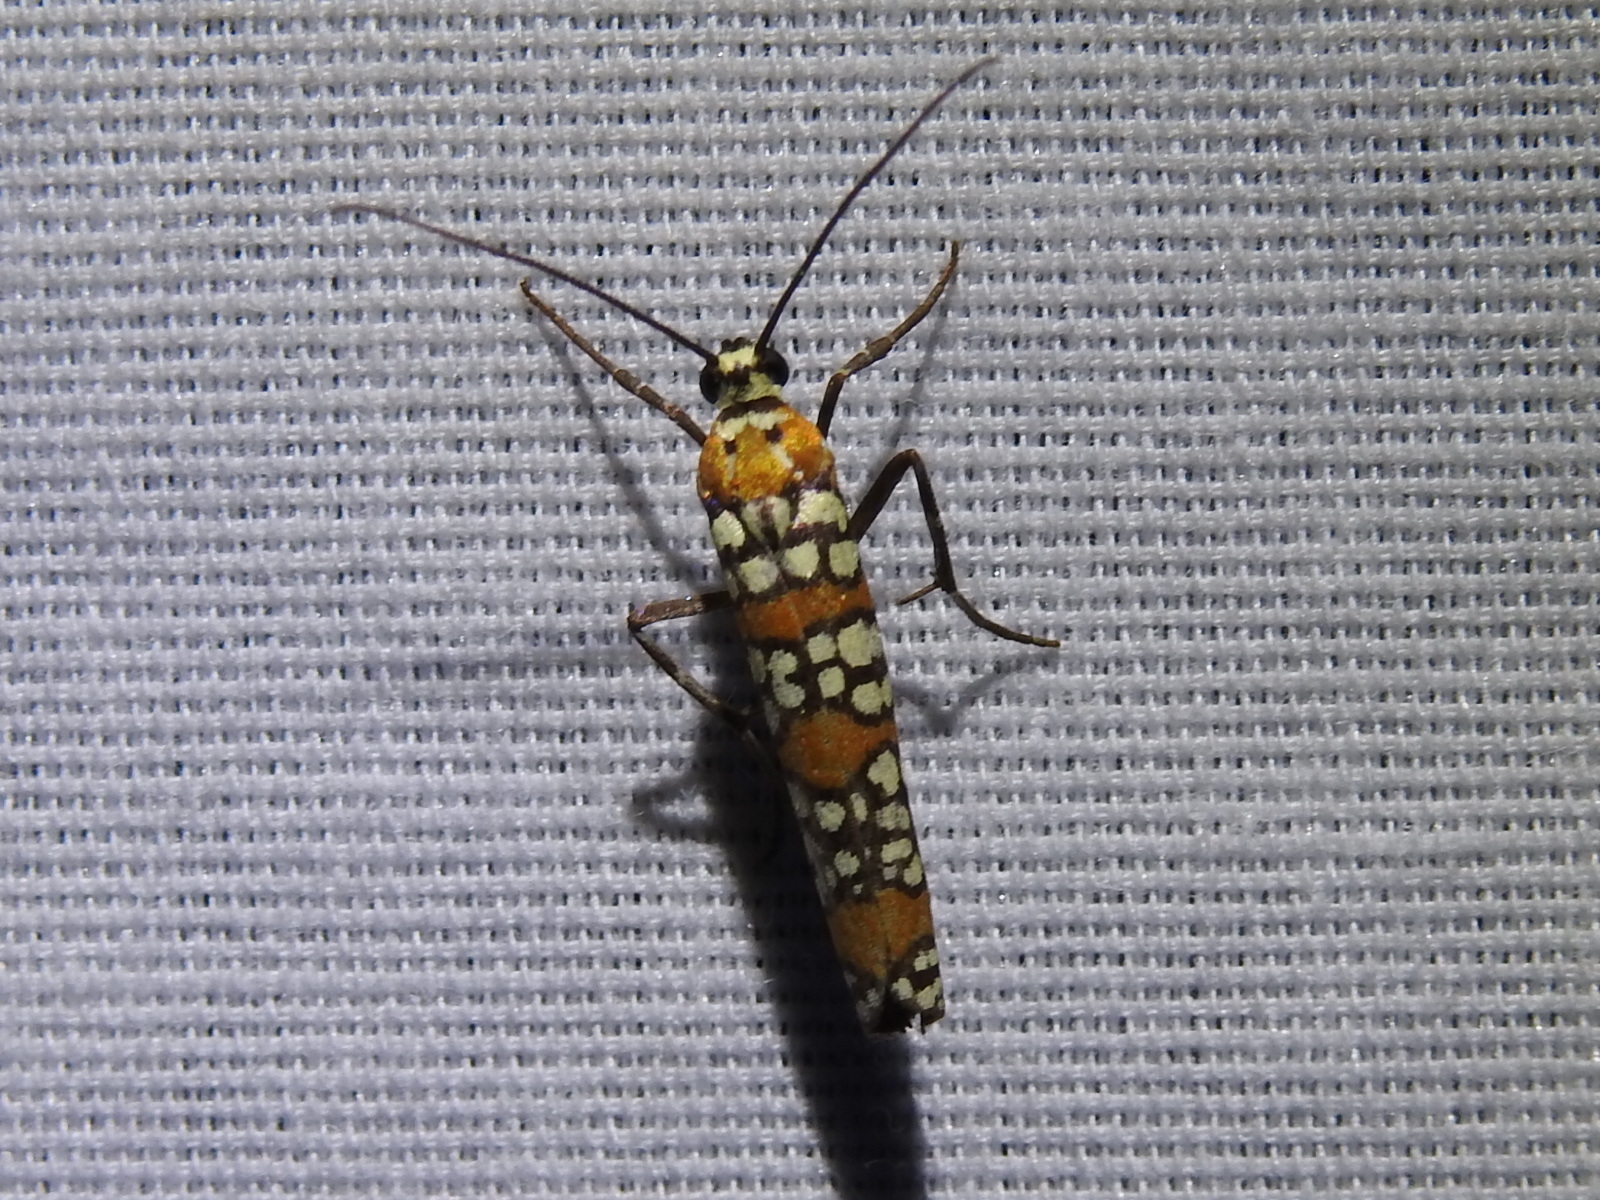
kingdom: Animalia
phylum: Arthropoda
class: Insecta
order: Lepidoptera
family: Attevidae
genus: Atteva
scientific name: Atteva punctella
